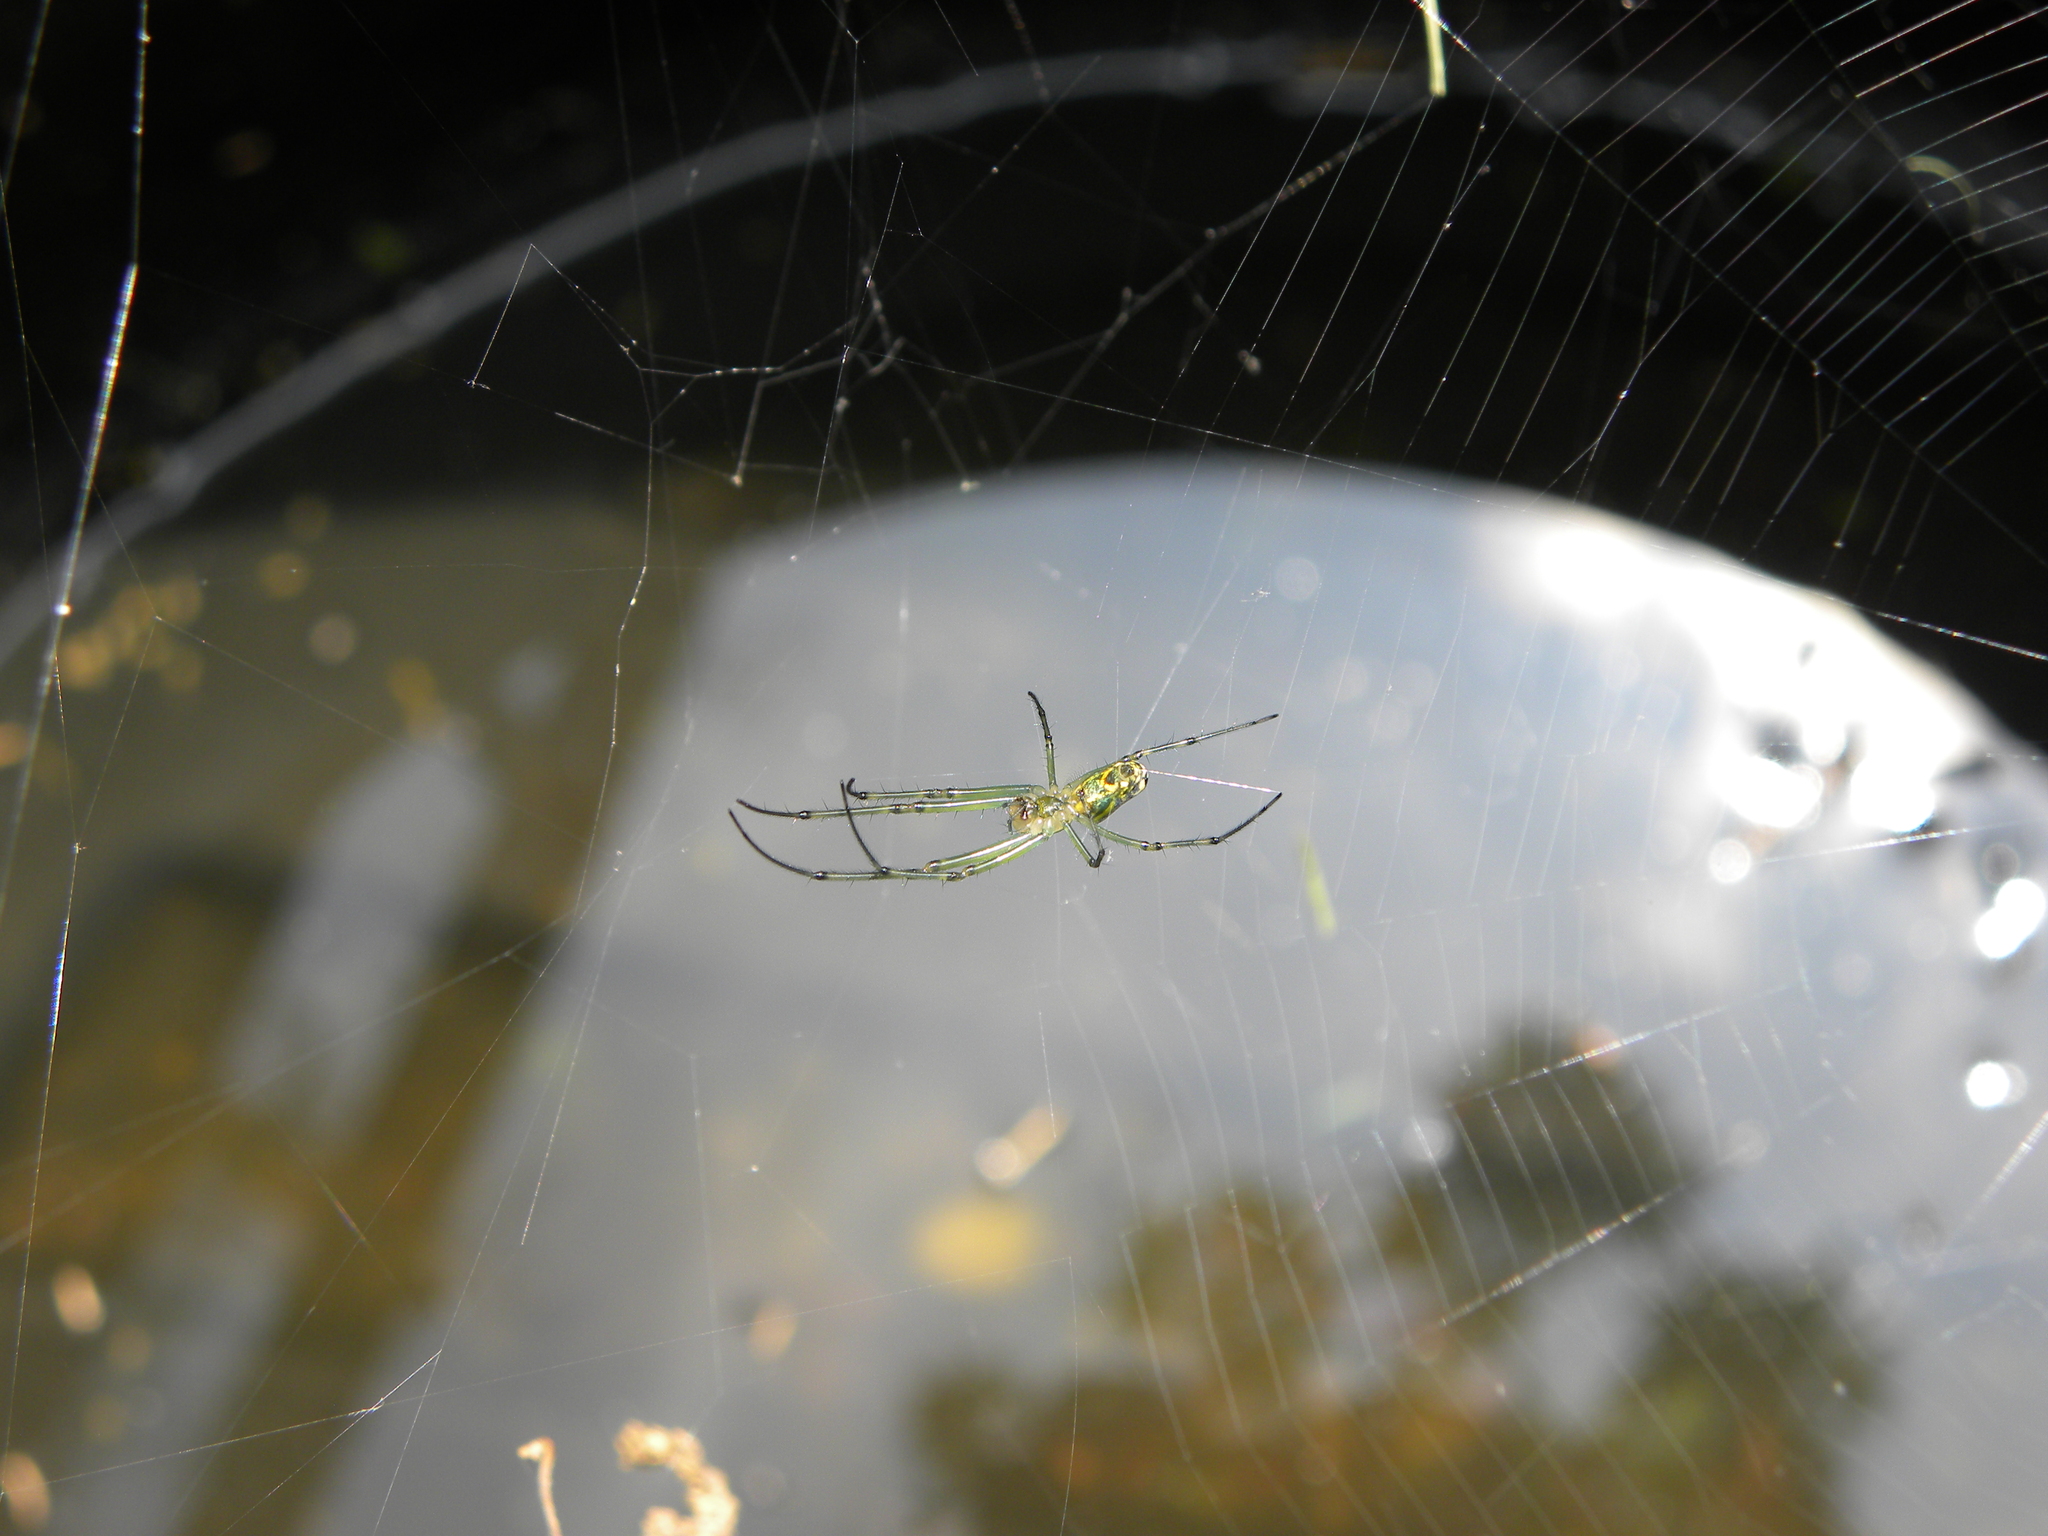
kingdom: Animalia
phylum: Arthropoda
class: Arachnida
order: Araneae
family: Tetragnathidae
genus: Leucauge
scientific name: Leucauge venusta
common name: Longjawed orb weavers
